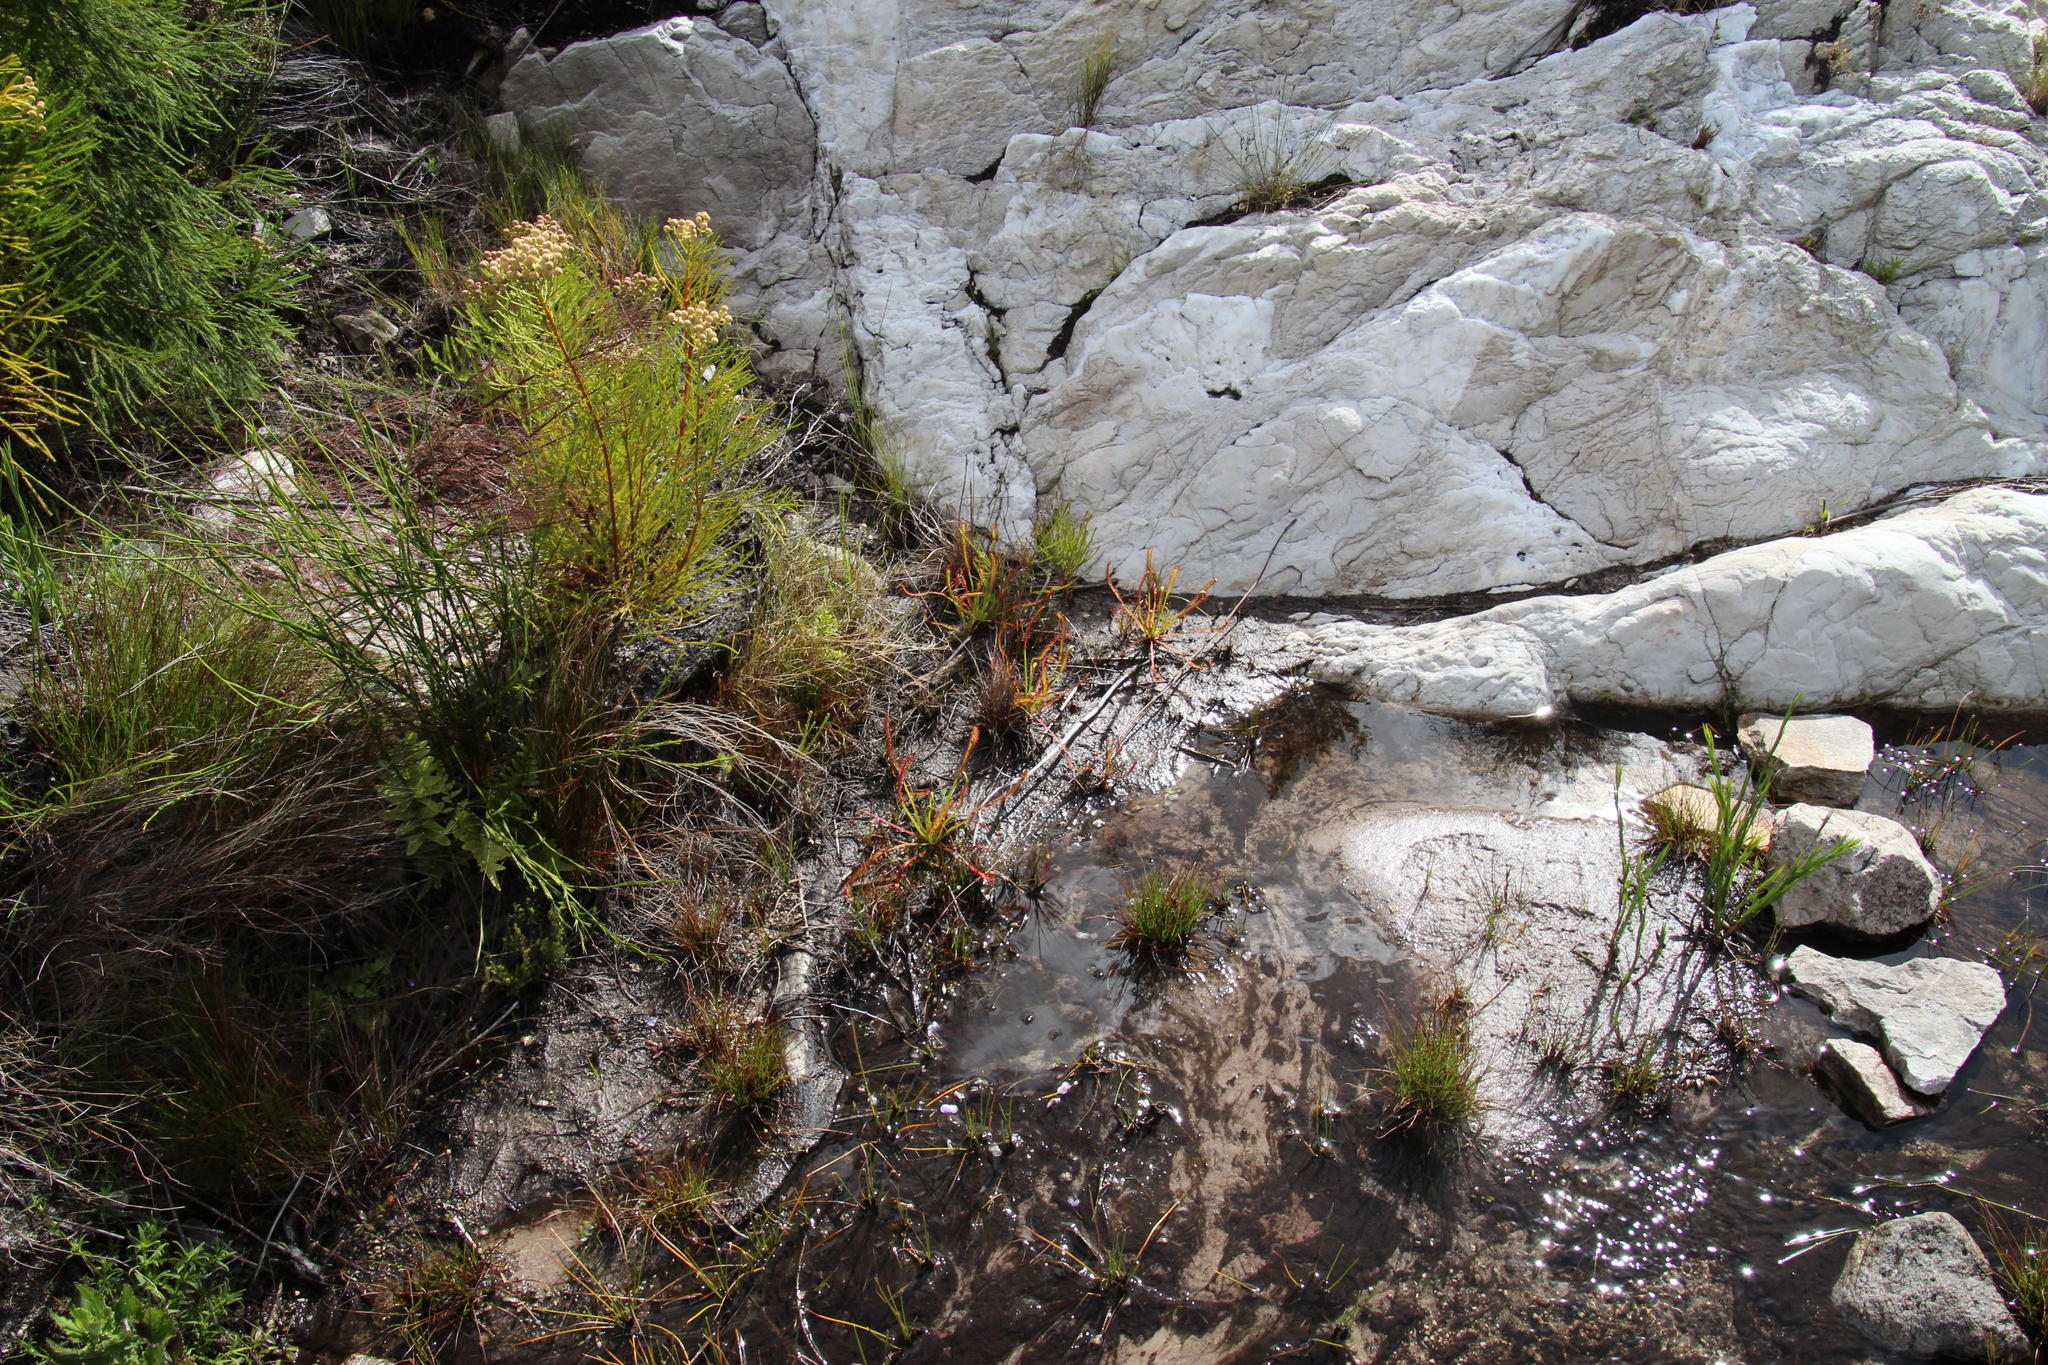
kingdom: Plantae
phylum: Tracheophyta
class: Magnoliopsida
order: Caryophyllales
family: Droseraceae
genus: Drosera
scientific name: Drosera capensis
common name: Cape sundew
